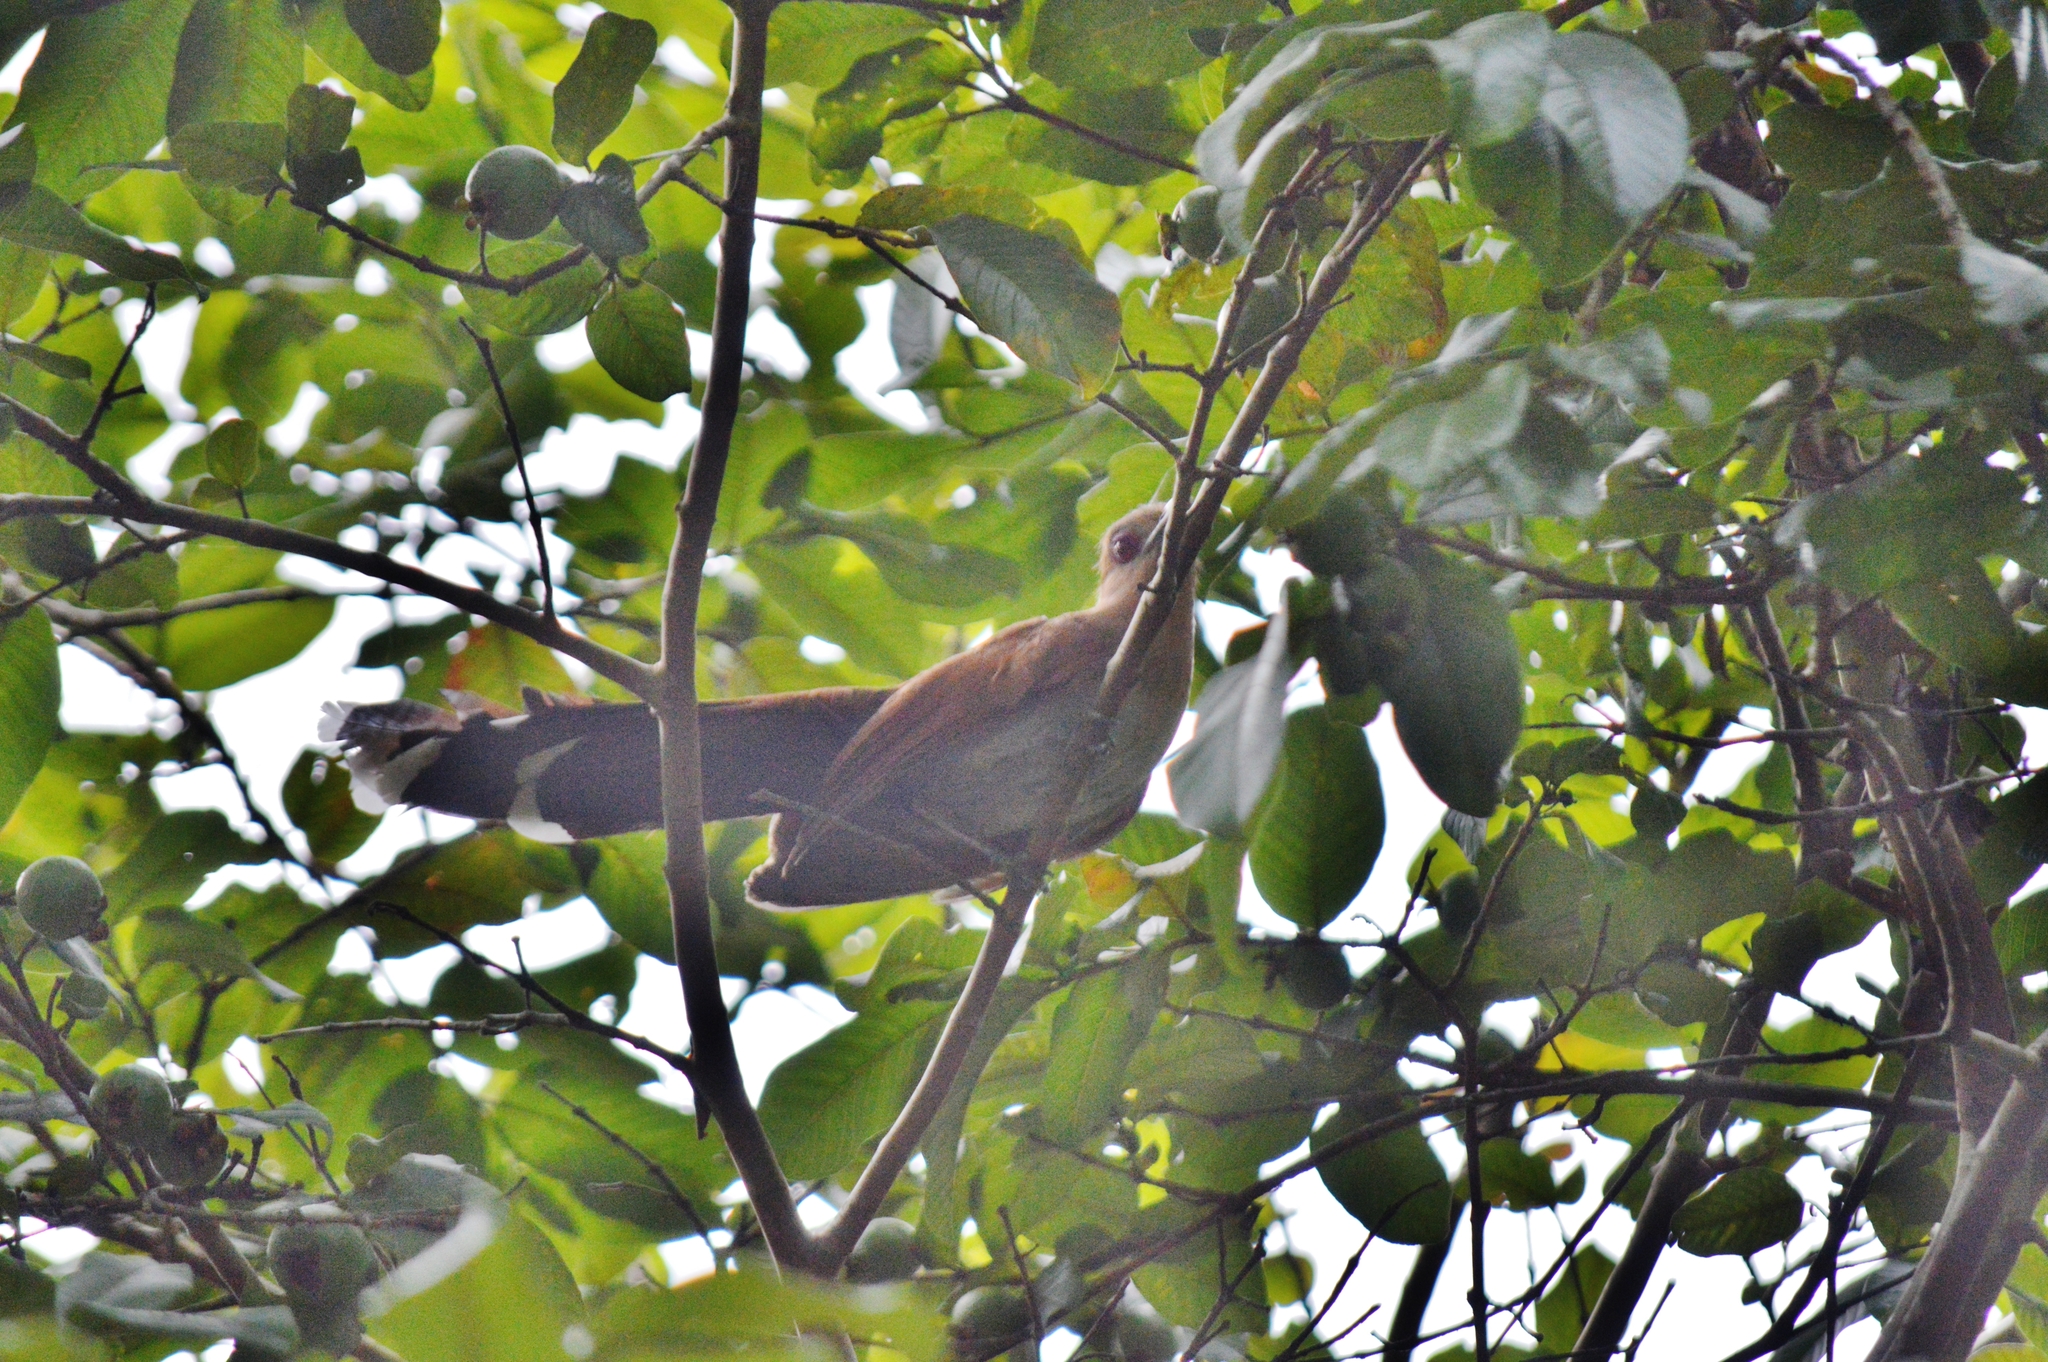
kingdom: Animalia
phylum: Chordata
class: Aves
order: Cuculiformes
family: Cuculidae
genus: Piaya
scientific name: Piaya cayana
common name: Squirrel cuckoo
